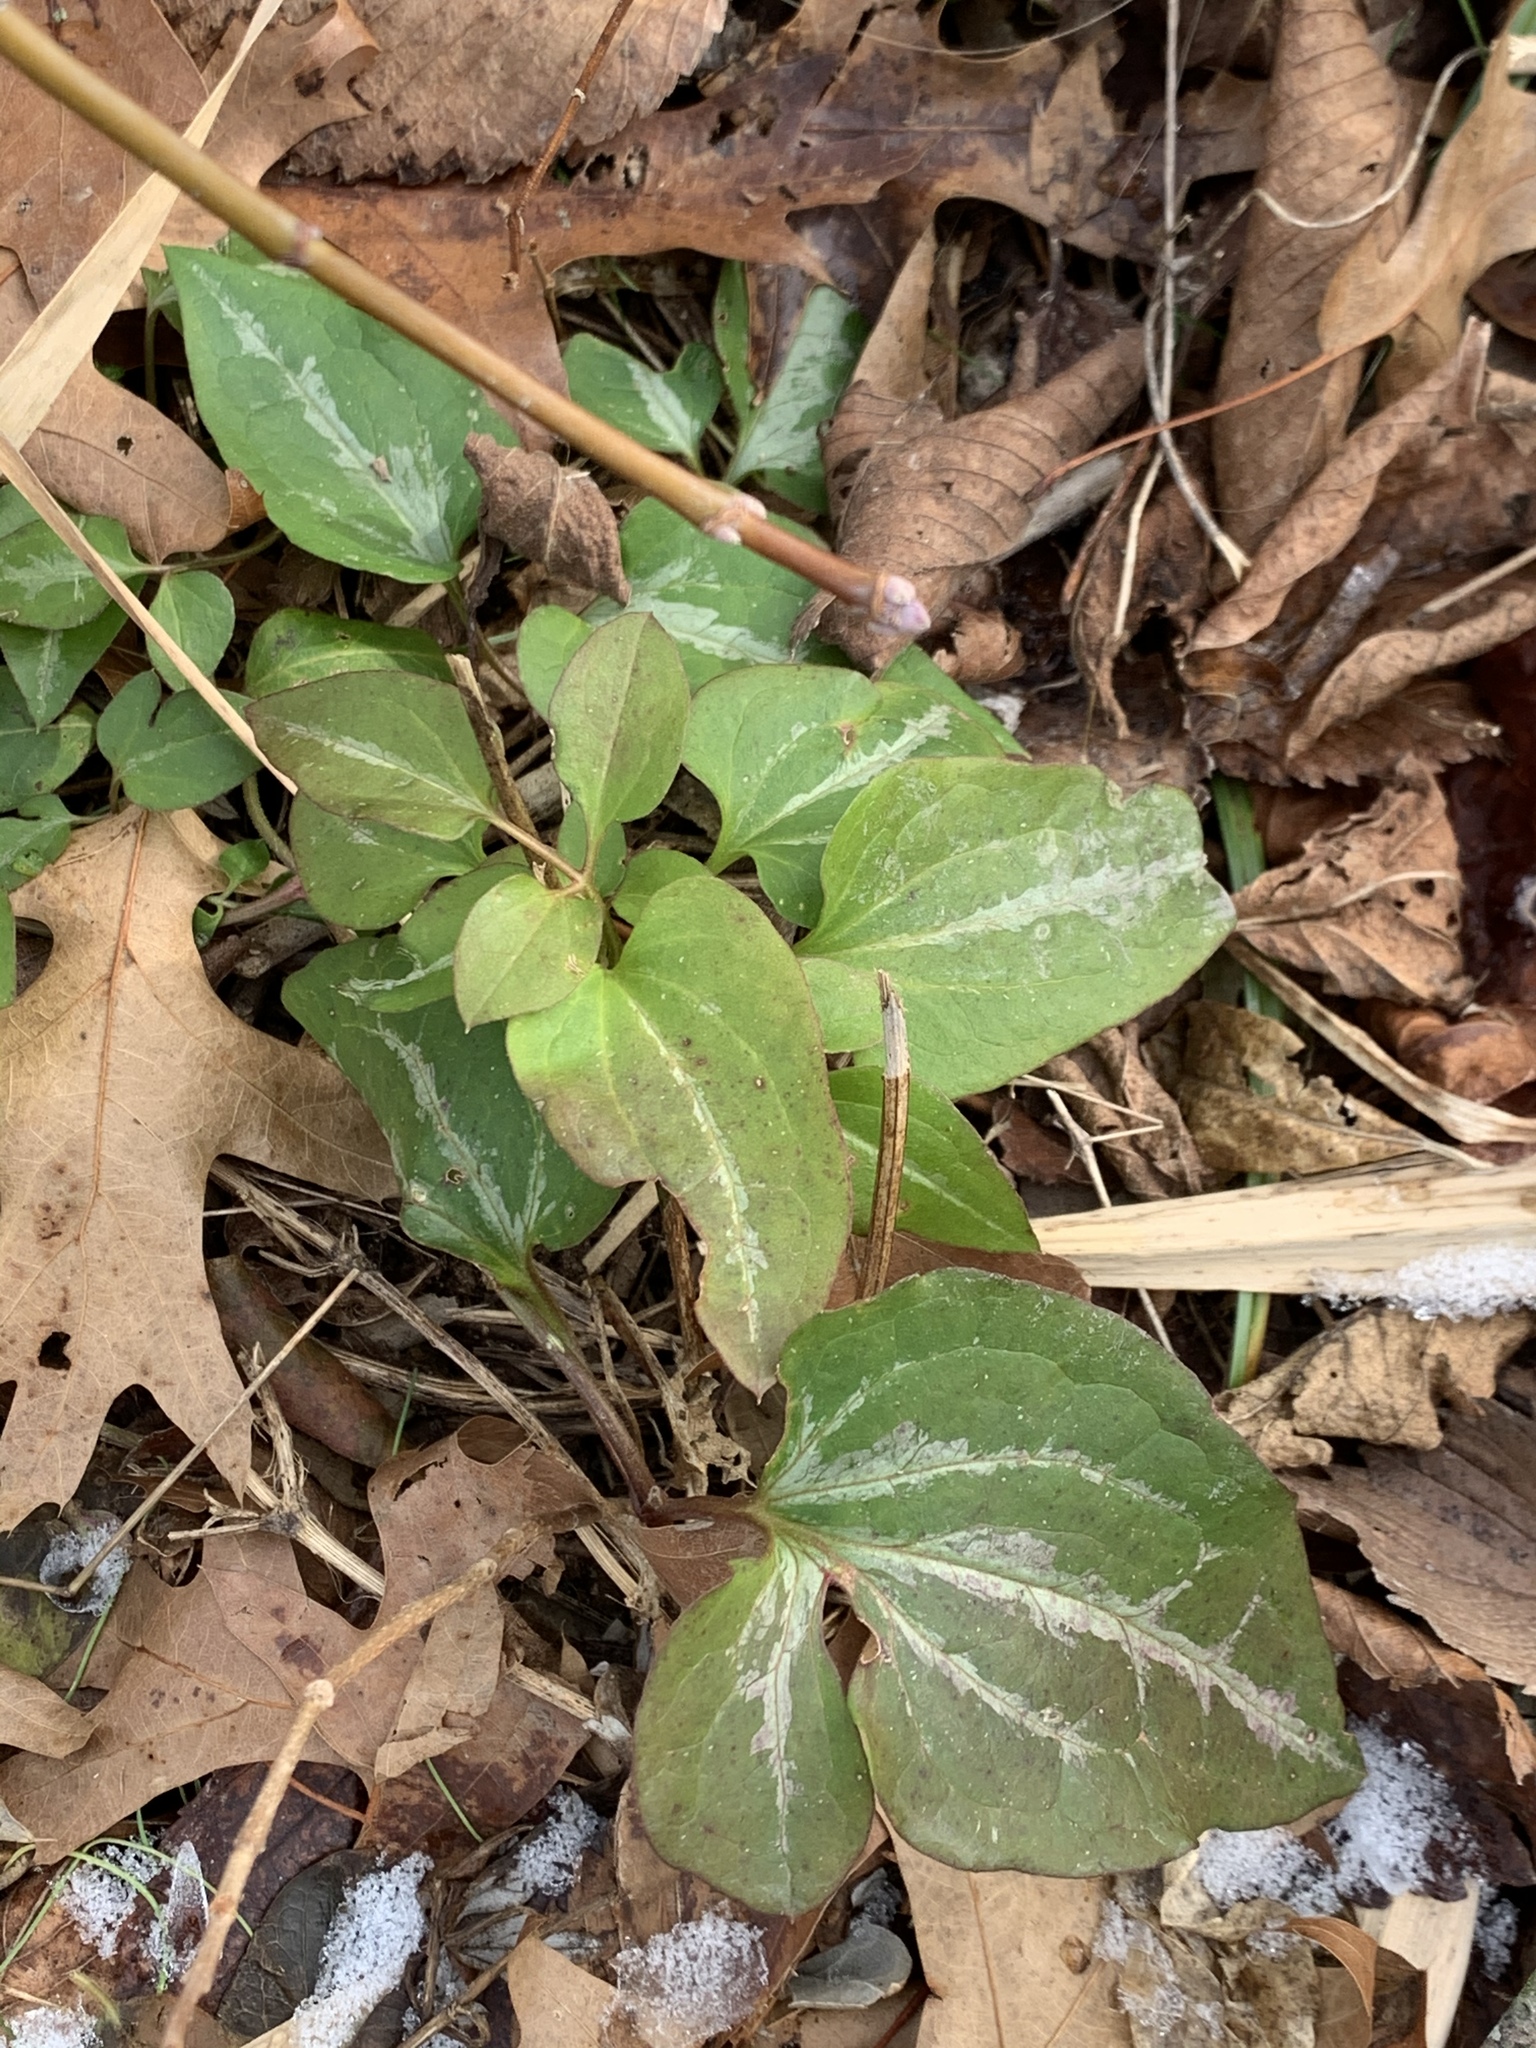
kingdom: Plantae
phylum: Tracheophyta
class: Magnoliopsida
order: Ranunculales
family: Ranunculaceae
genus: Clematis
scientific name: Clematis terniflora
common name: Sweet autumn clematis
